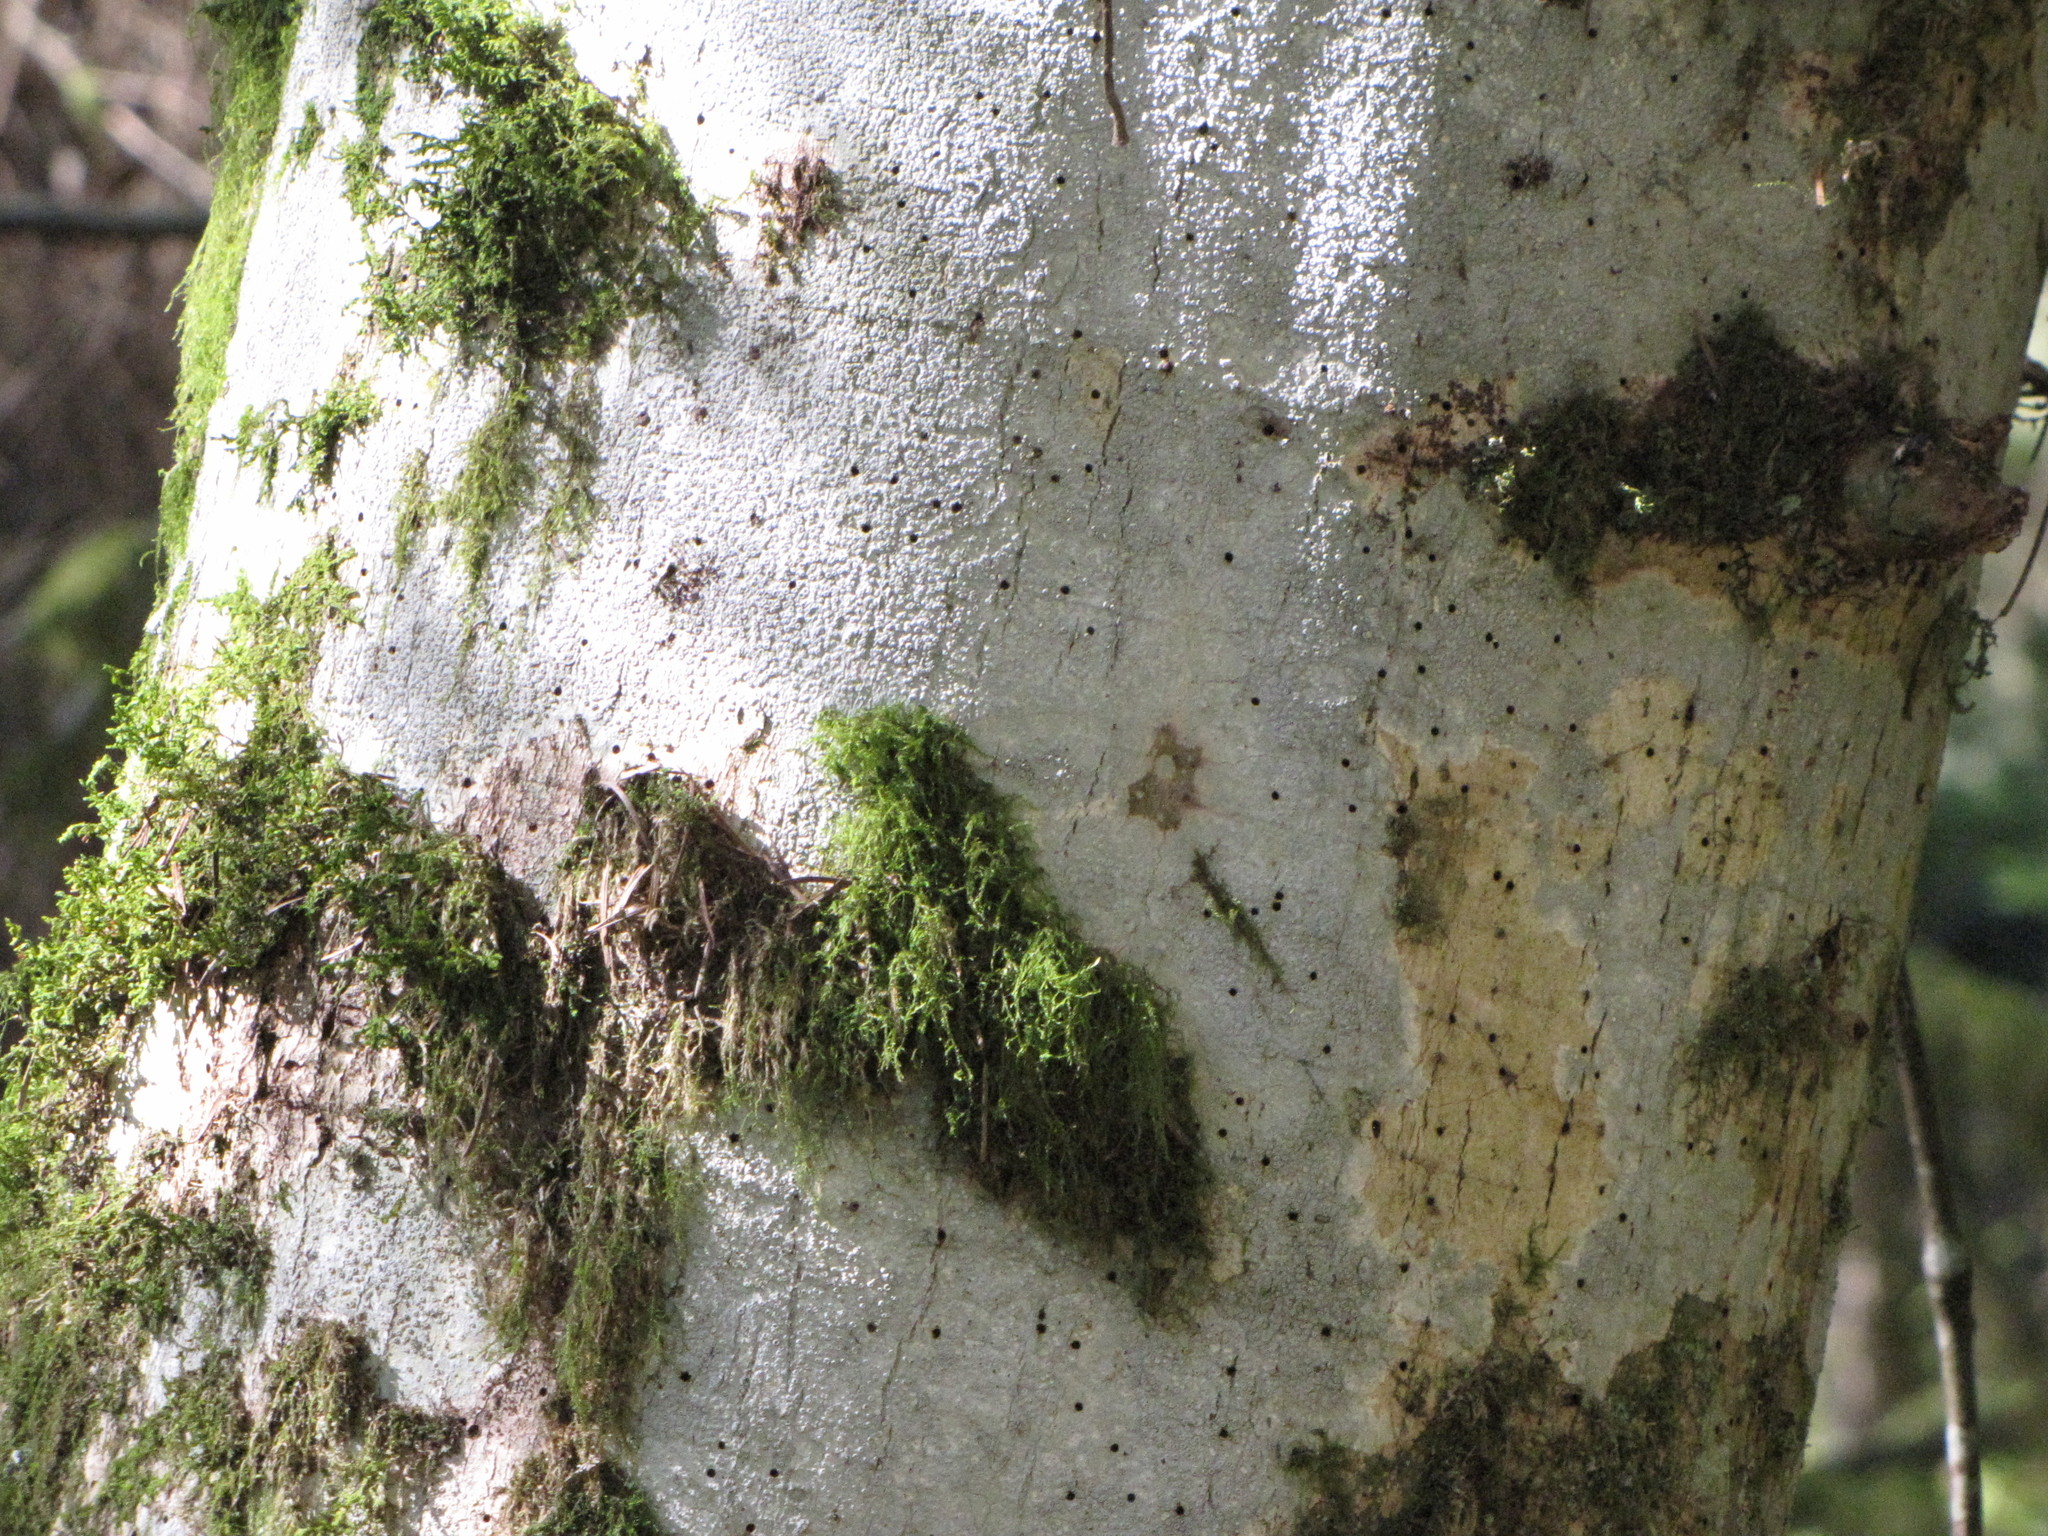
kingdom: Plantae
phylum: Tracheophyta
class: Magnoliopsida
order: Fagales
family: Betulaceae
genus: Alnus
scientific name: Alnus rubra
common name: Red alder
